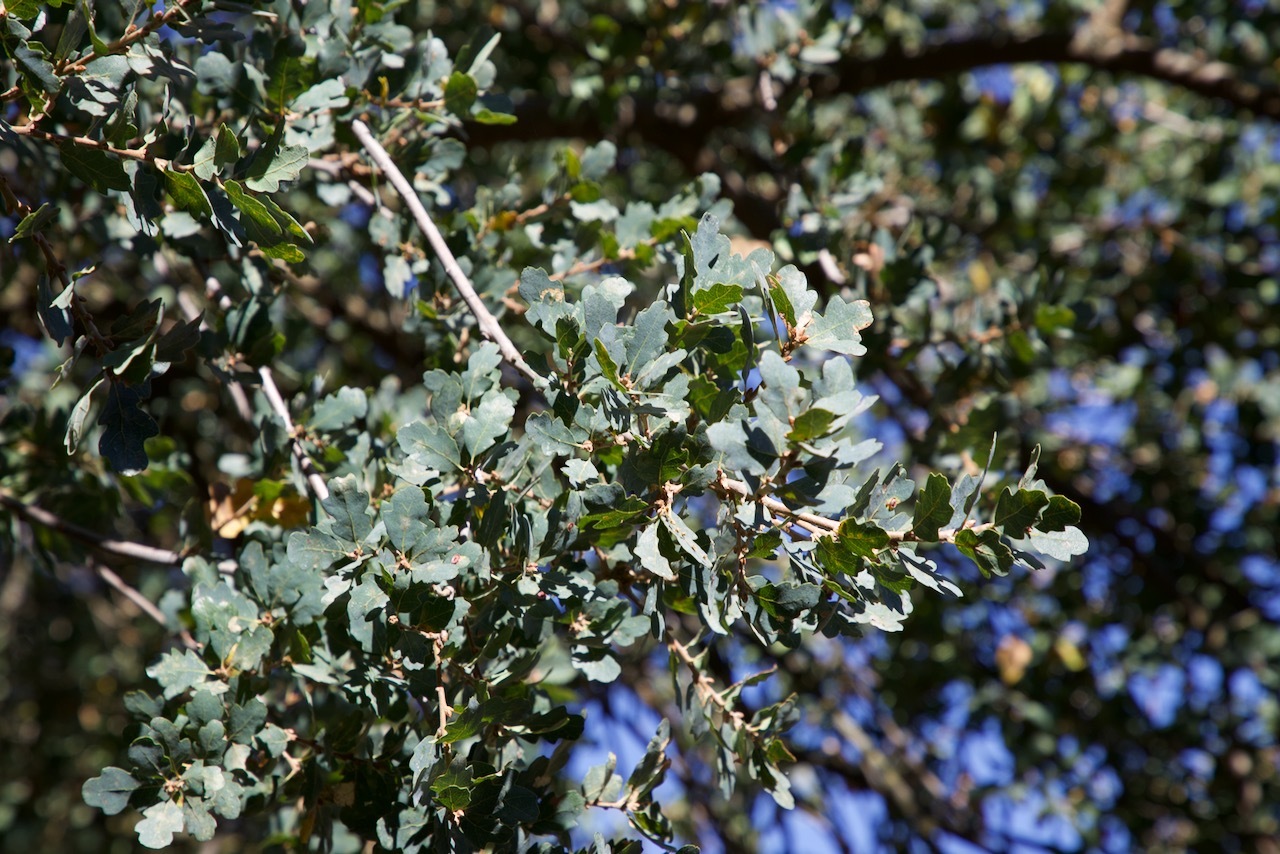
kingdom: Plantae
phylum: Tracheophyta
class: Magnoliopsida
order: Fagales
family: Fagaceae
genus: Quercus
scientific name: Quercus douglasii
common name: Blue oak
